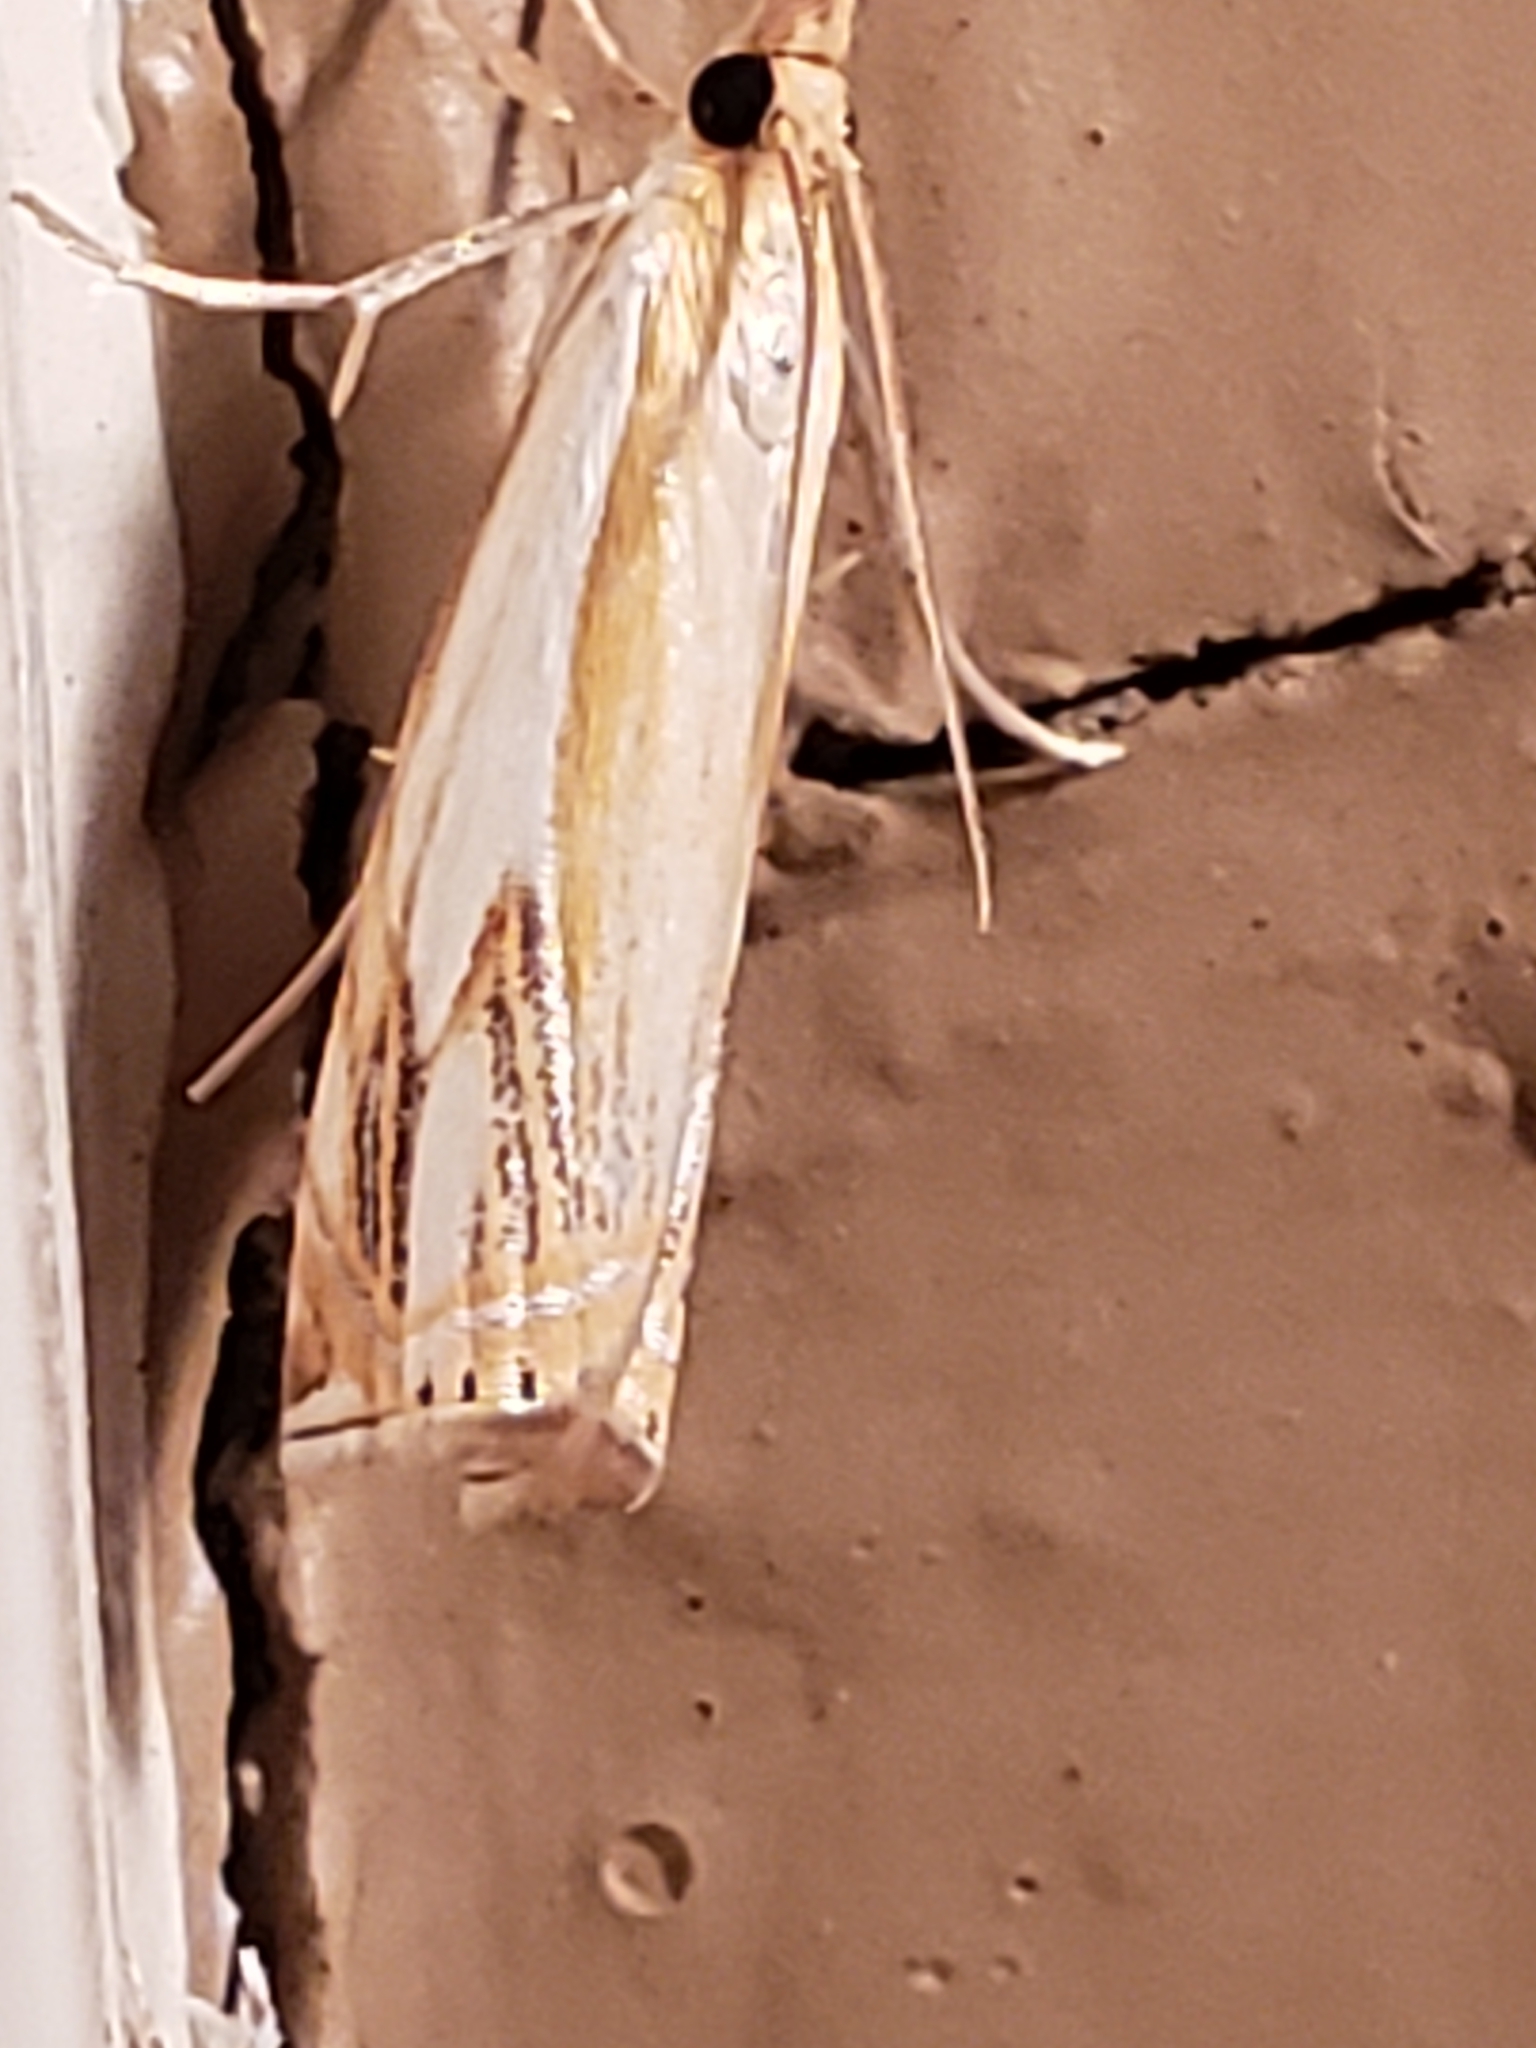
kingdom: Animalia
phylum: Arthropoda
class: Insecta
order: Lepidoptera
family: Crambidae
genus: Crambus
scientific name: Crambus agitatellus
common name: Double-banded grass-veneer
